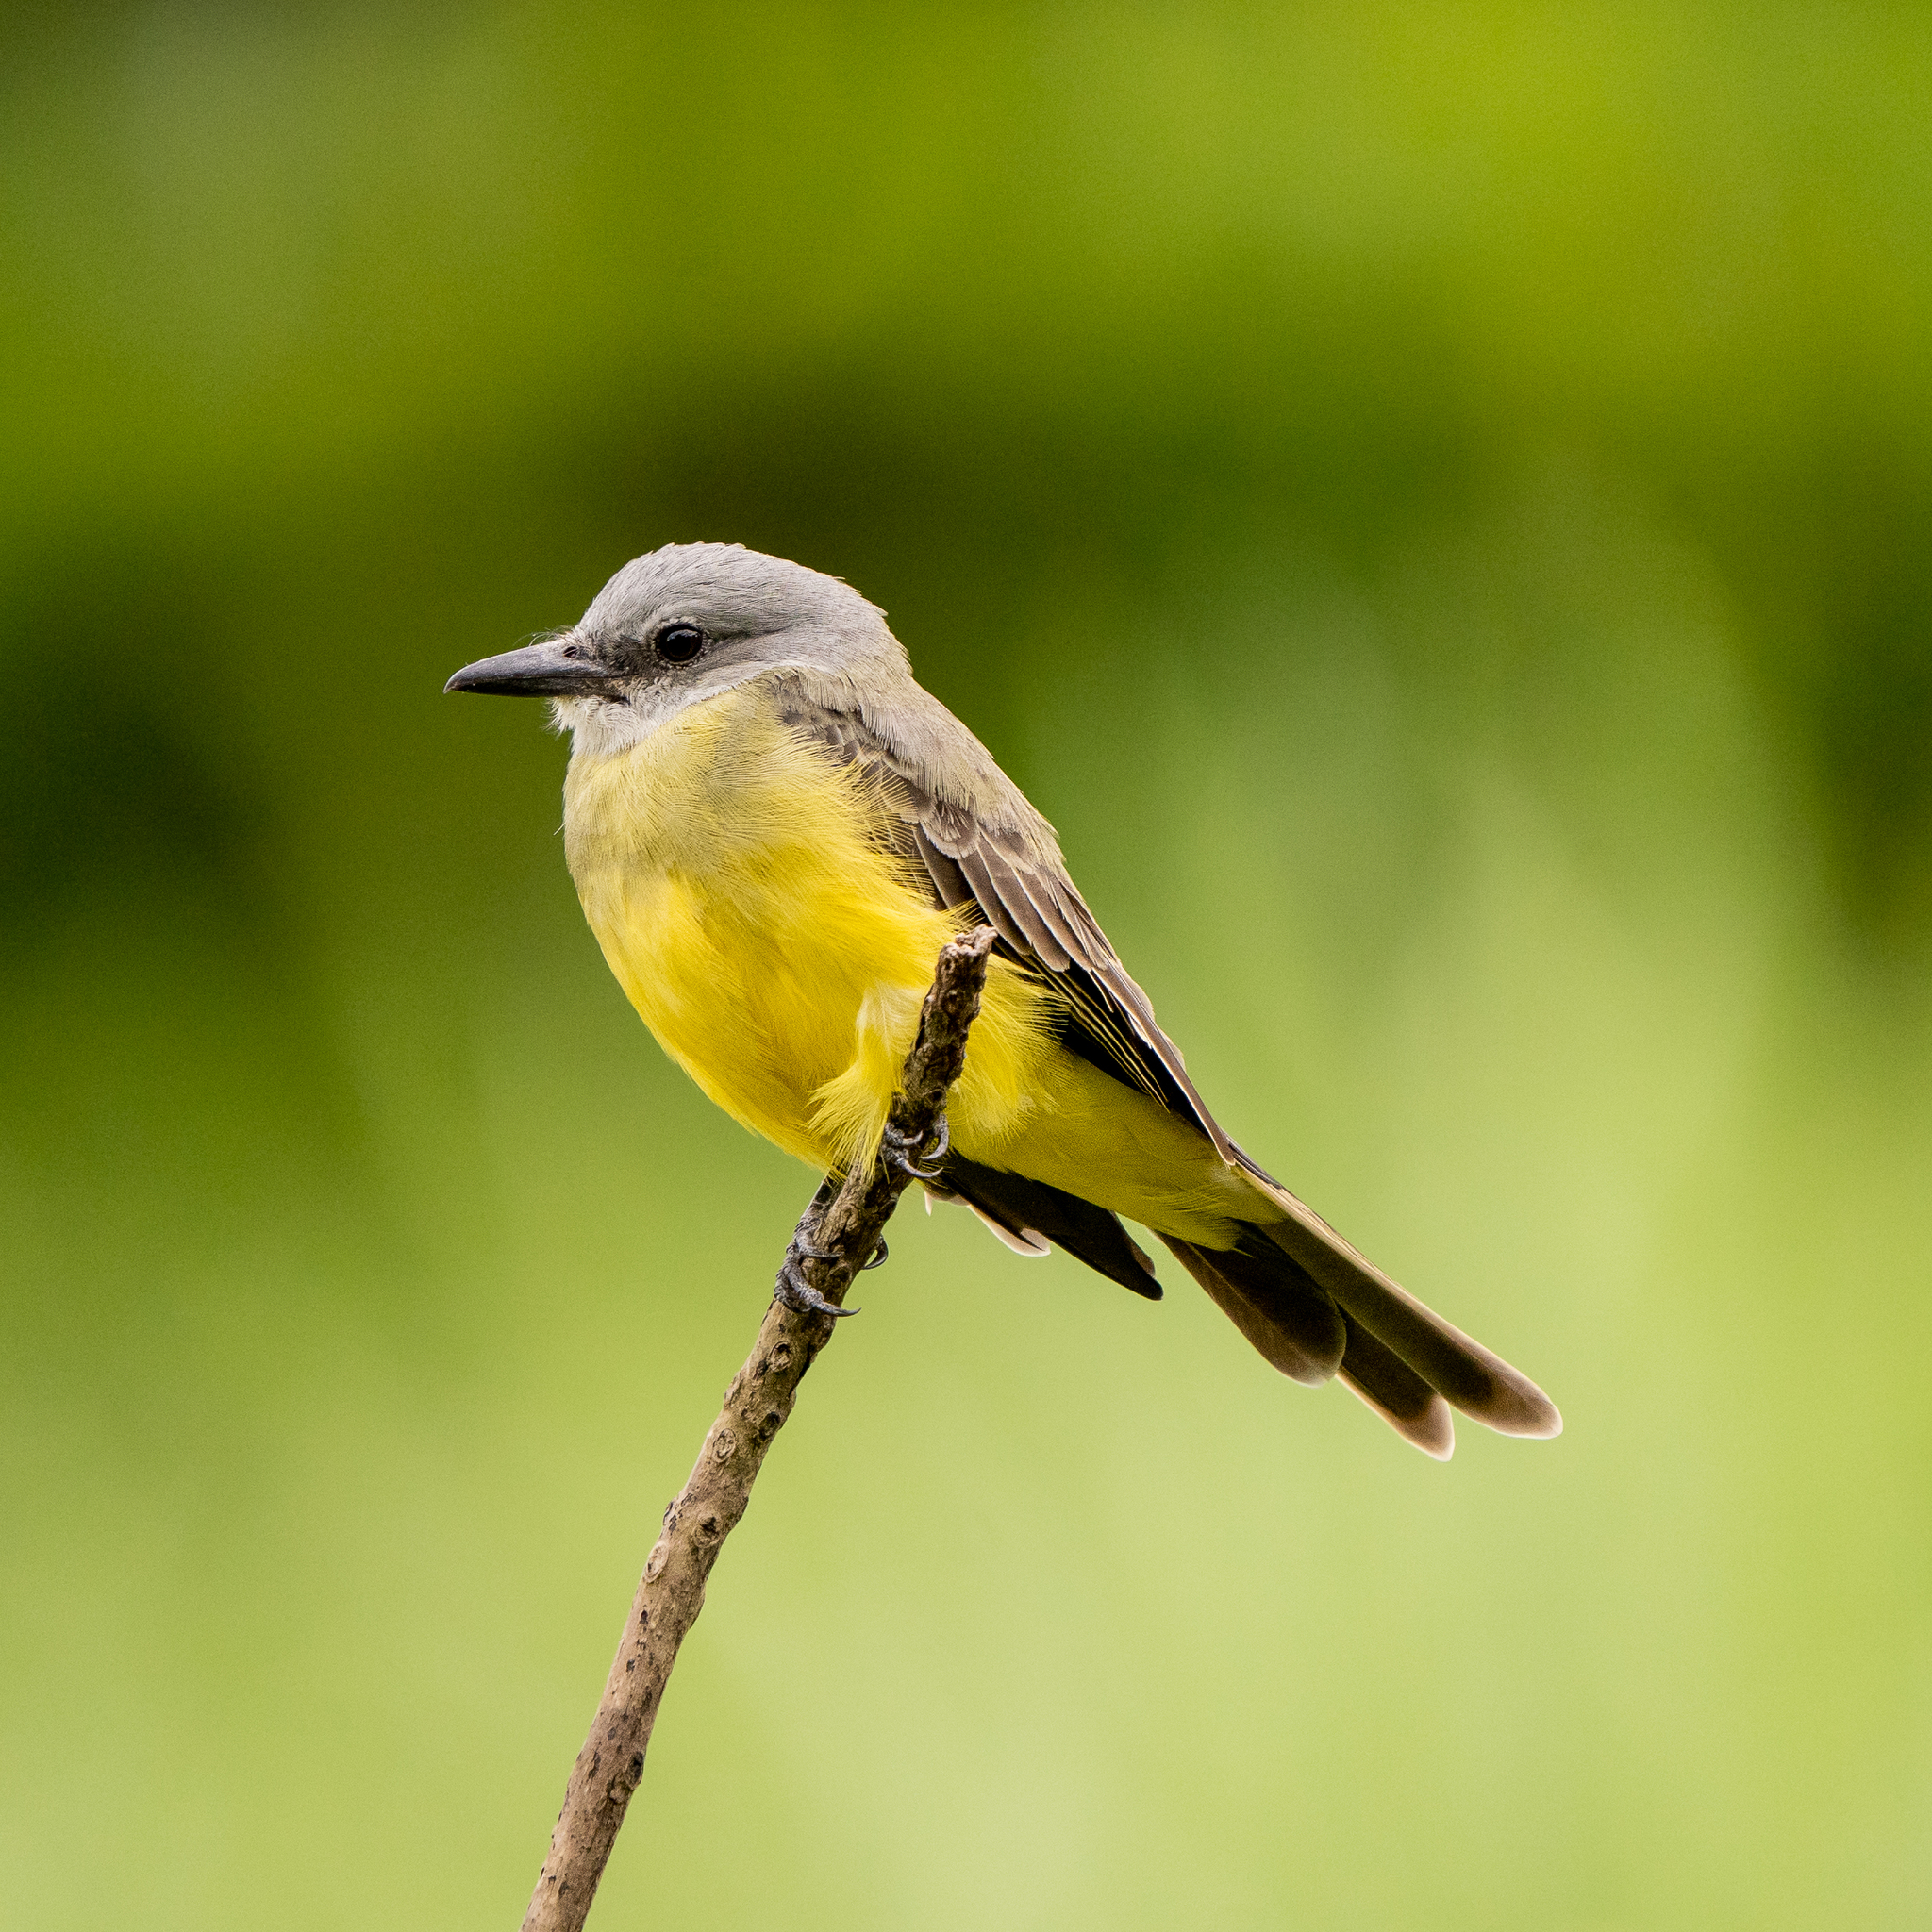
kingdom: Animalia
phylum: Chordata
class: Aves
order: Passeriformes
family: Tyrannidae
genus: Tyrannus
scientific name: Tyrannus melancholicus
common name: Tropical kingbird
